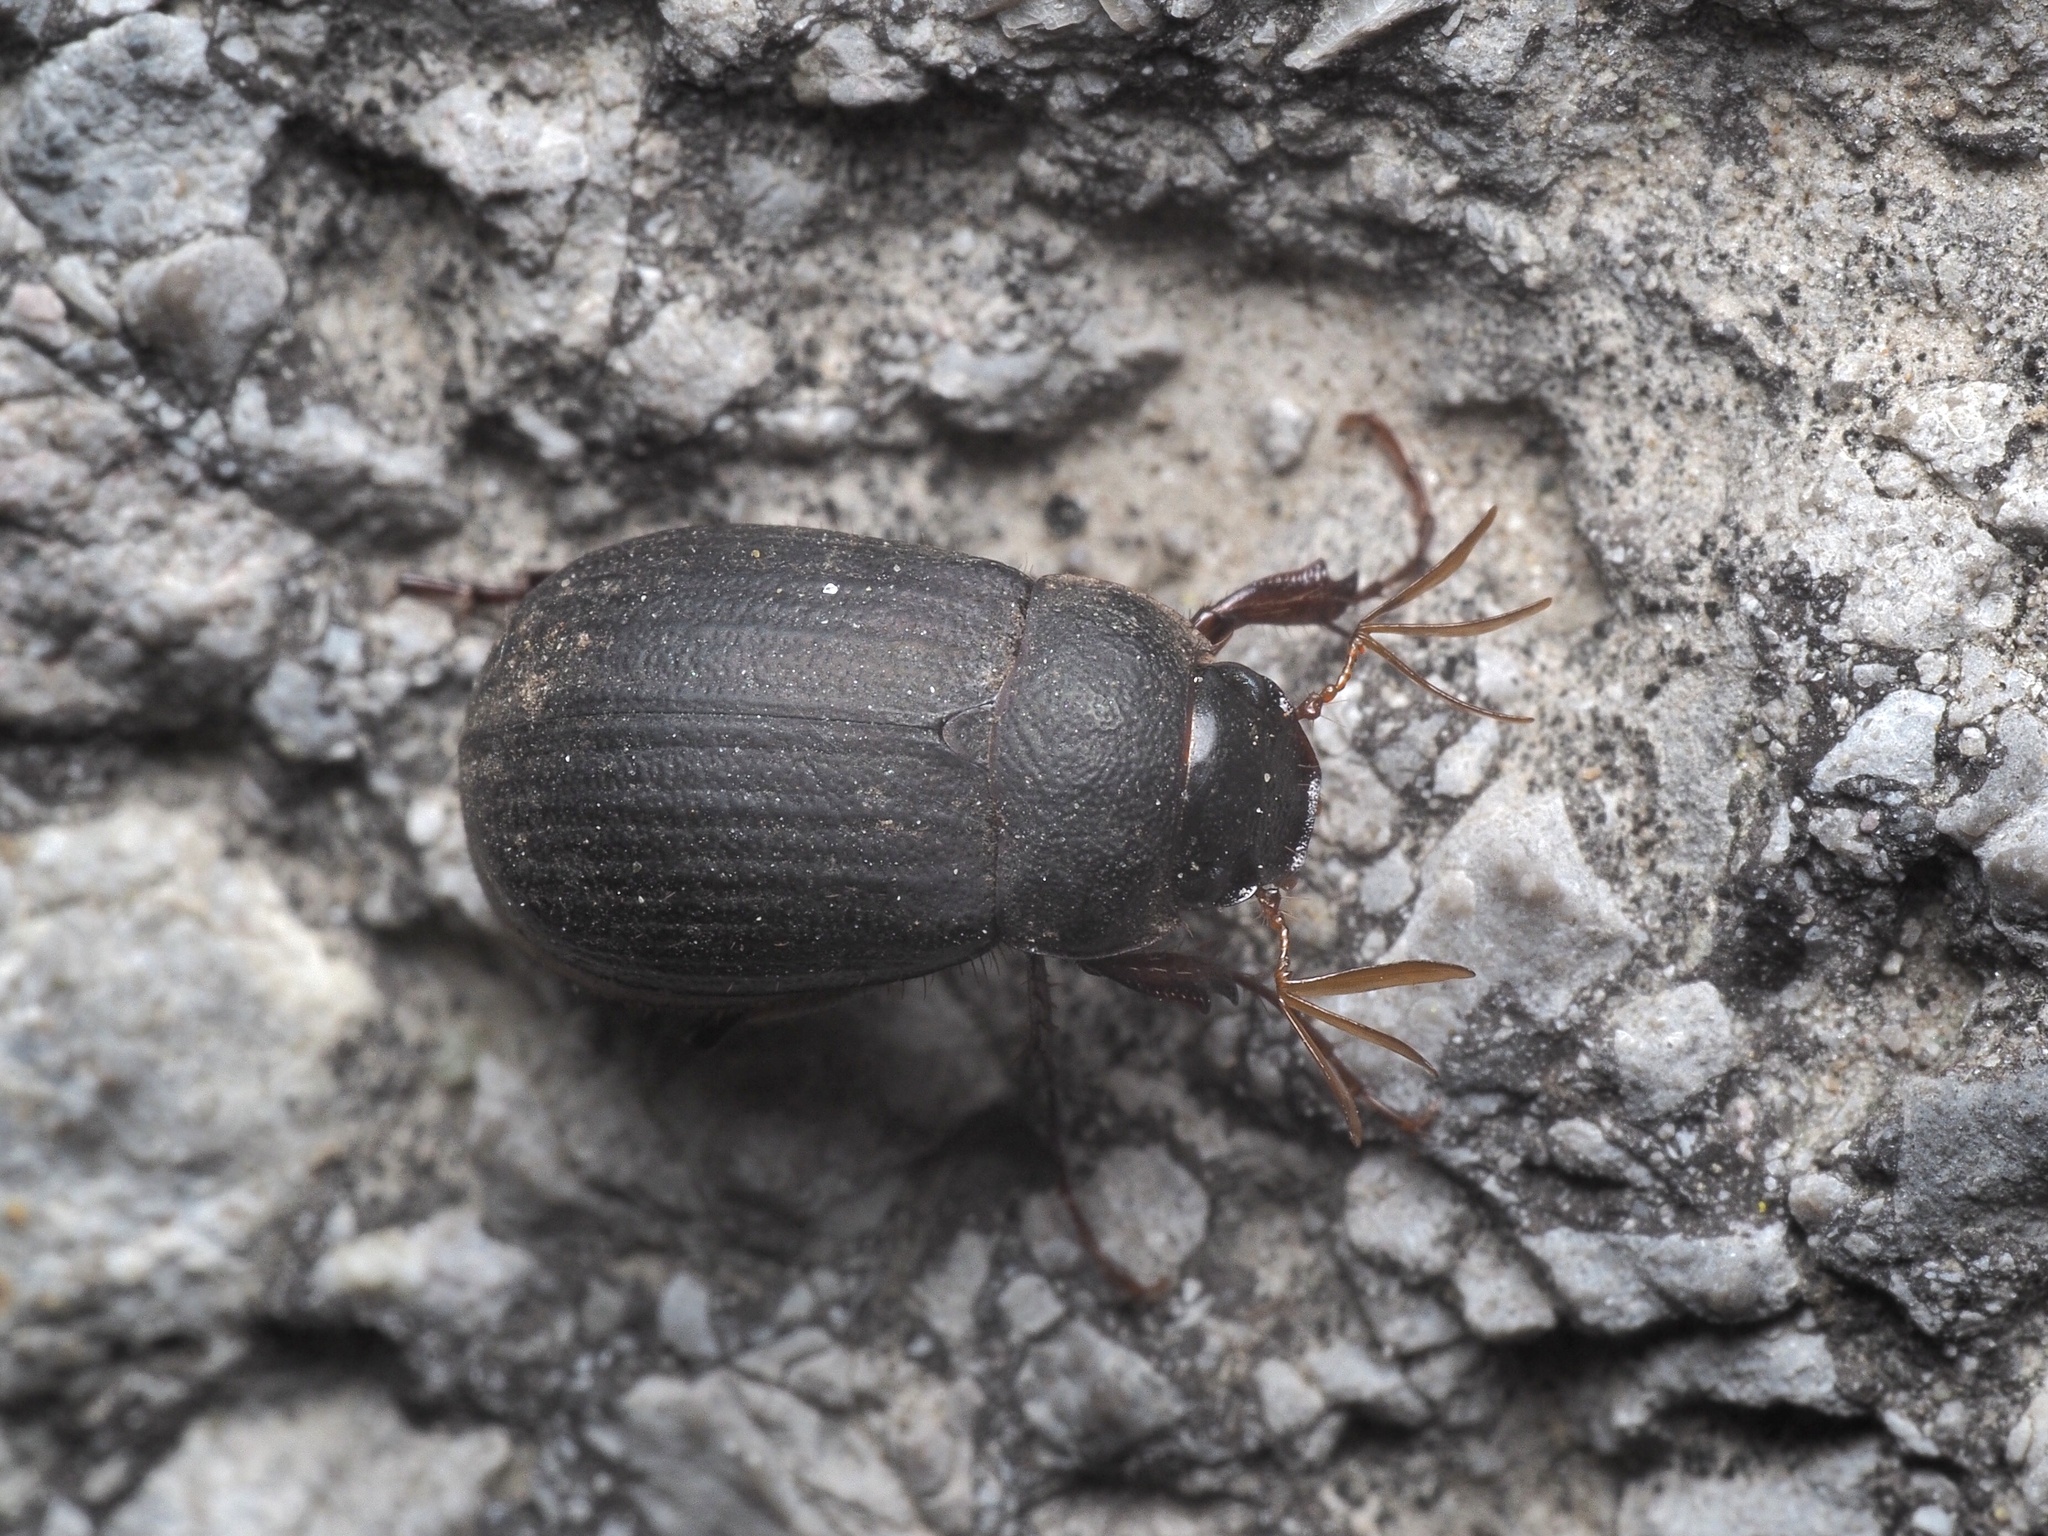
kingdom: Animalia
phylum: Arthropoda
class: Insecta
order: Coleoptera
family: Scarabaeidae
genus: Maladera
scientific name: Maladera holosericea
